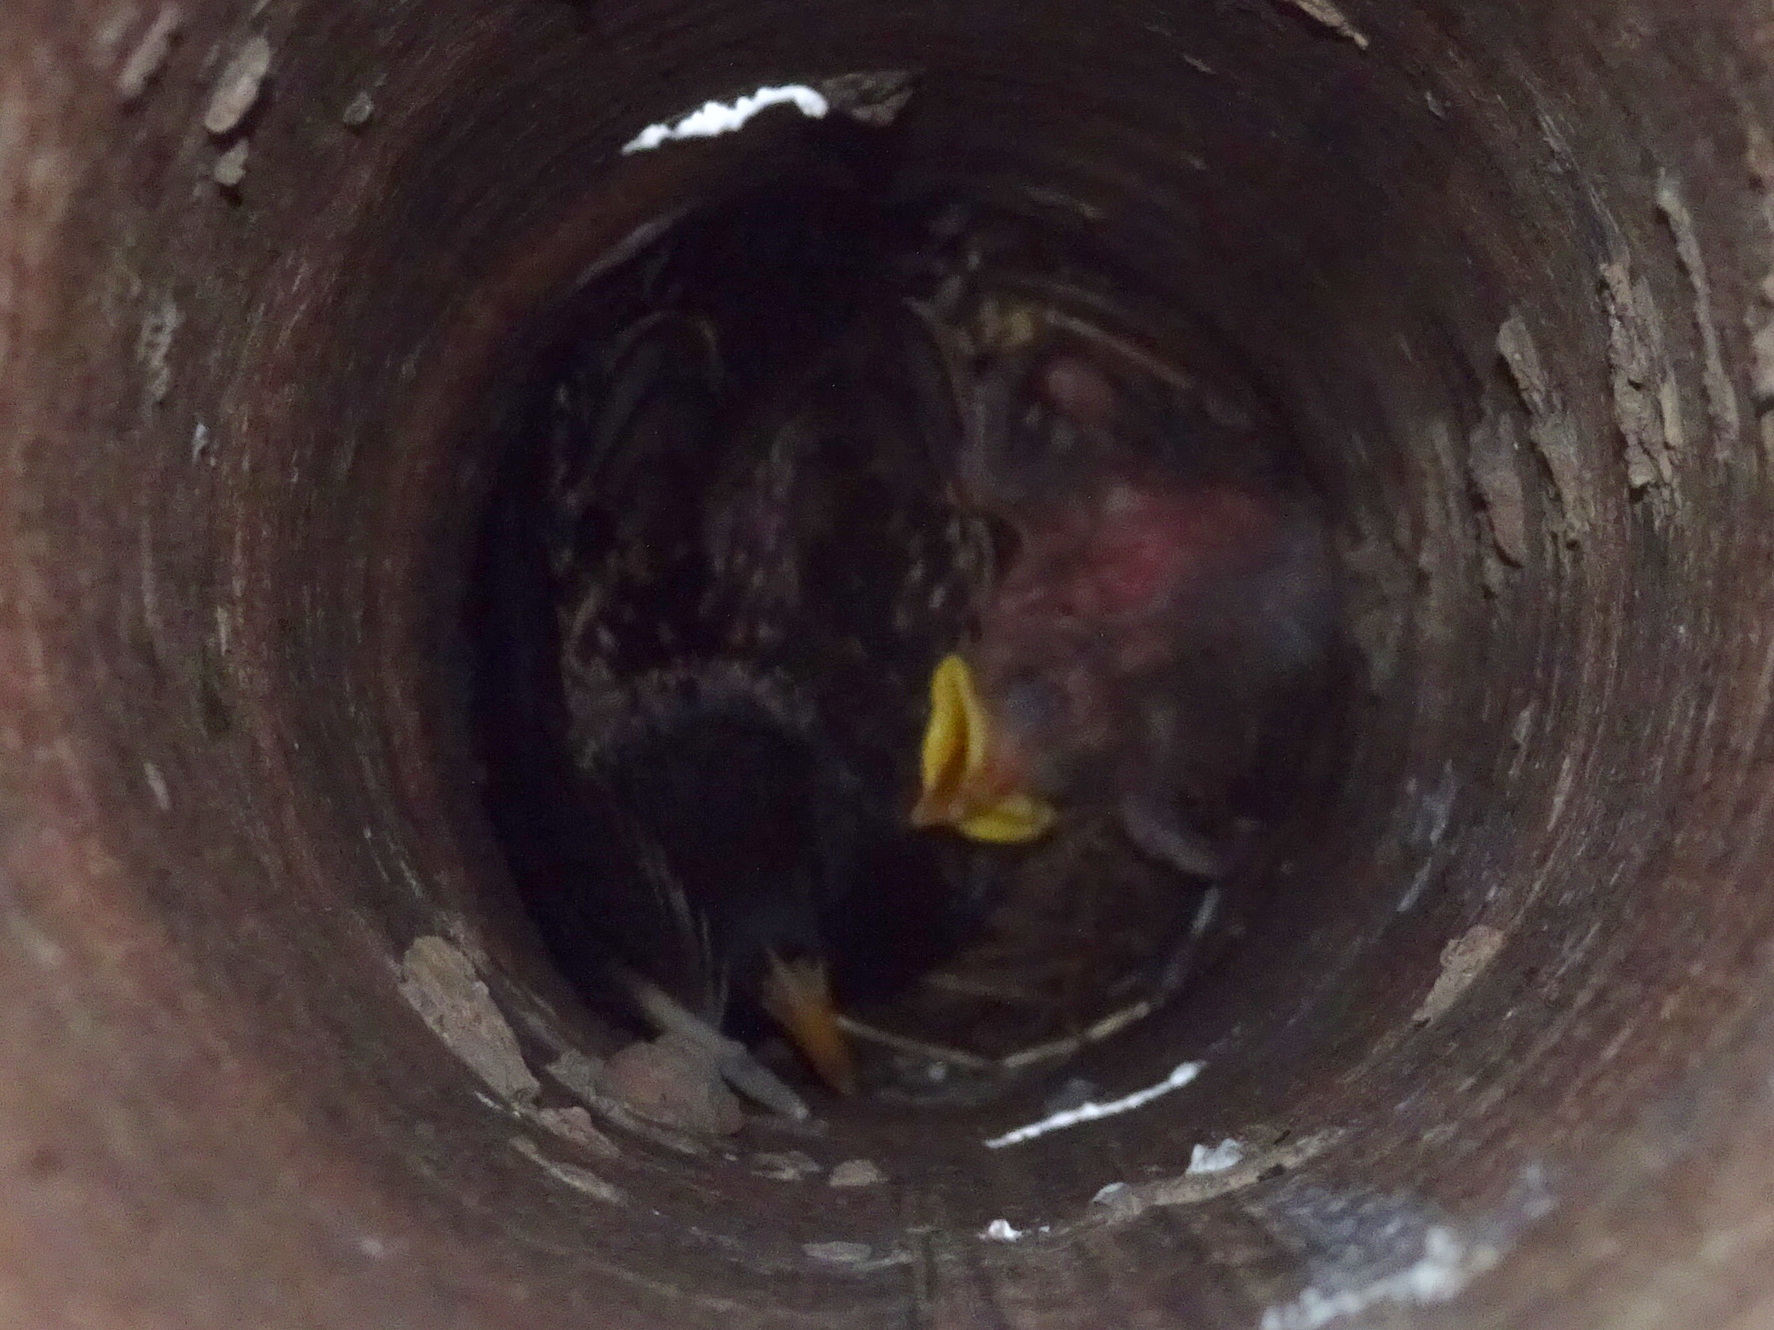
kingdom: Animalia
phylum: Chordata
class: Aves
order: Passeriformes
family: Sturnidae
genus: Sturnus
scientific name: Sturnus vulgaris
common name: Common starling
